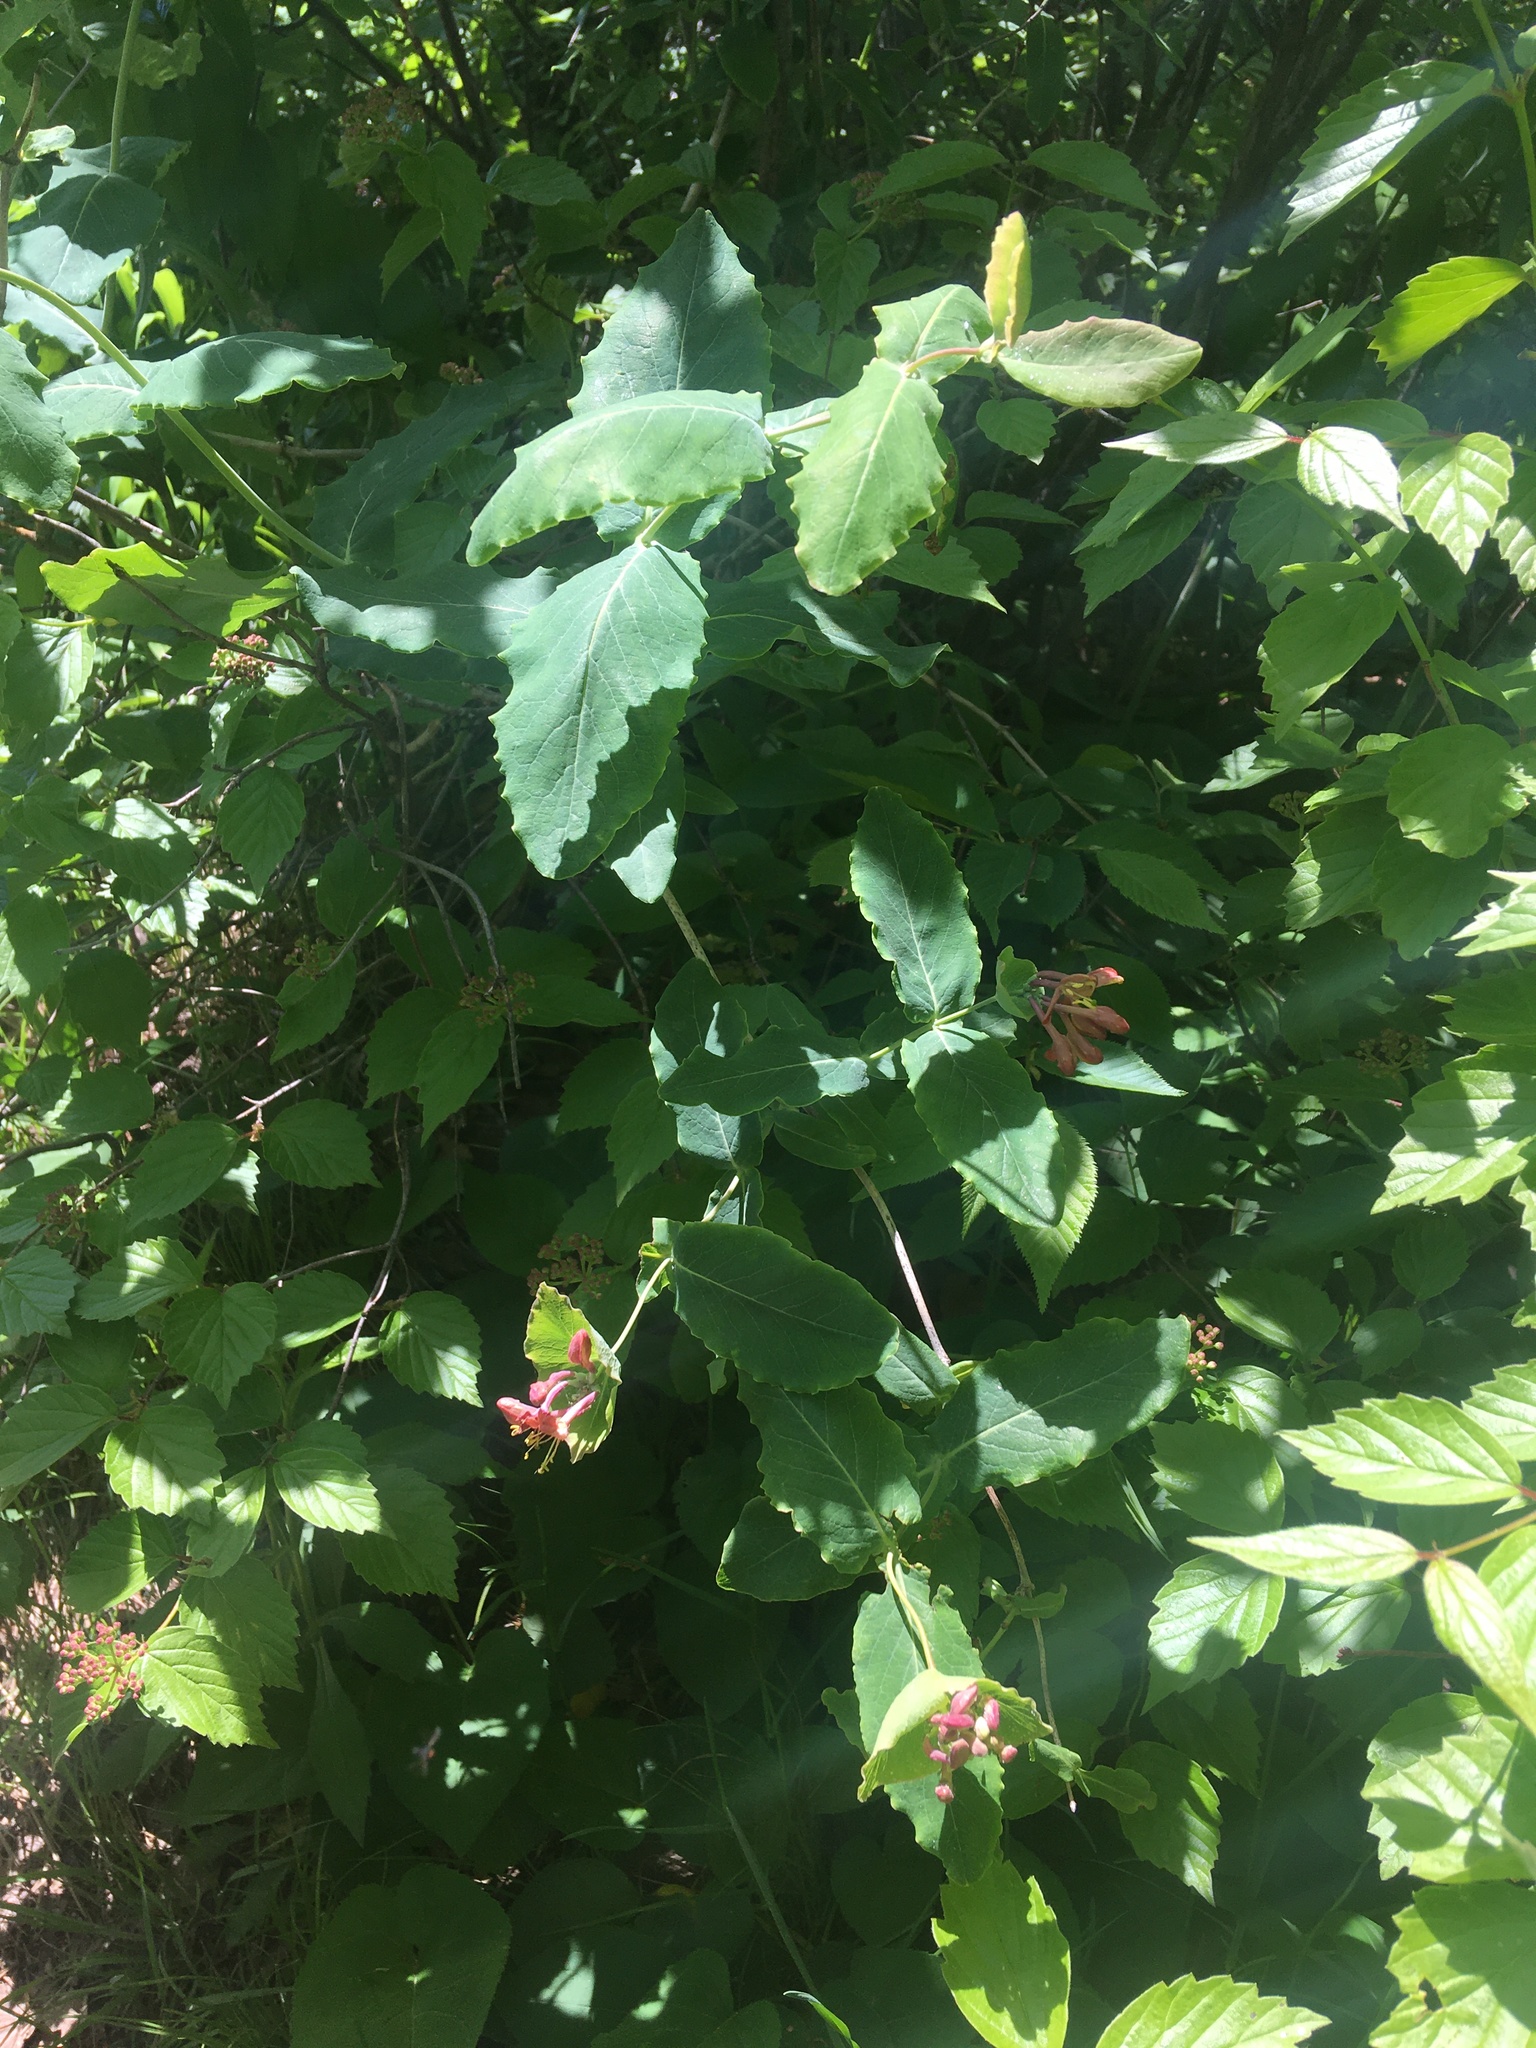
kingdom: Plantae
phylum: Tracheophyta
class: Magnoliopsida
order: Dipsacales
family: Caprifoliaceae
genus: Lonicera
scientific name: Lonicera dioica
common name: Limber honeysuckle
